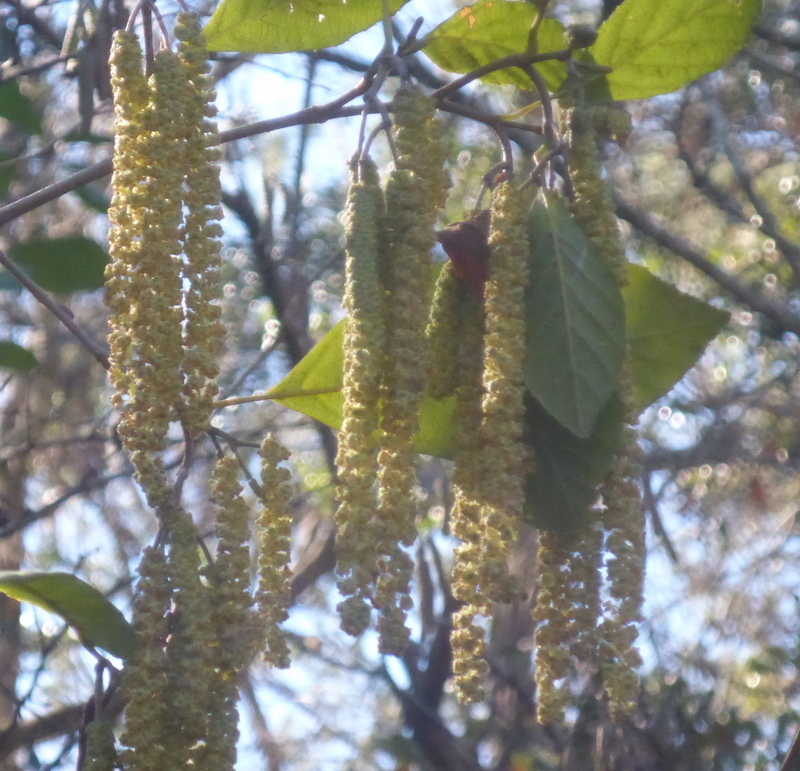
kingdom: Plantae
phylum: Tracheophyta
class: Magnoliopsida
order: Fagales
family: Betulaceae
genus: Alnus
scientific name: Alnus serrulata
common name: Hazel alder
